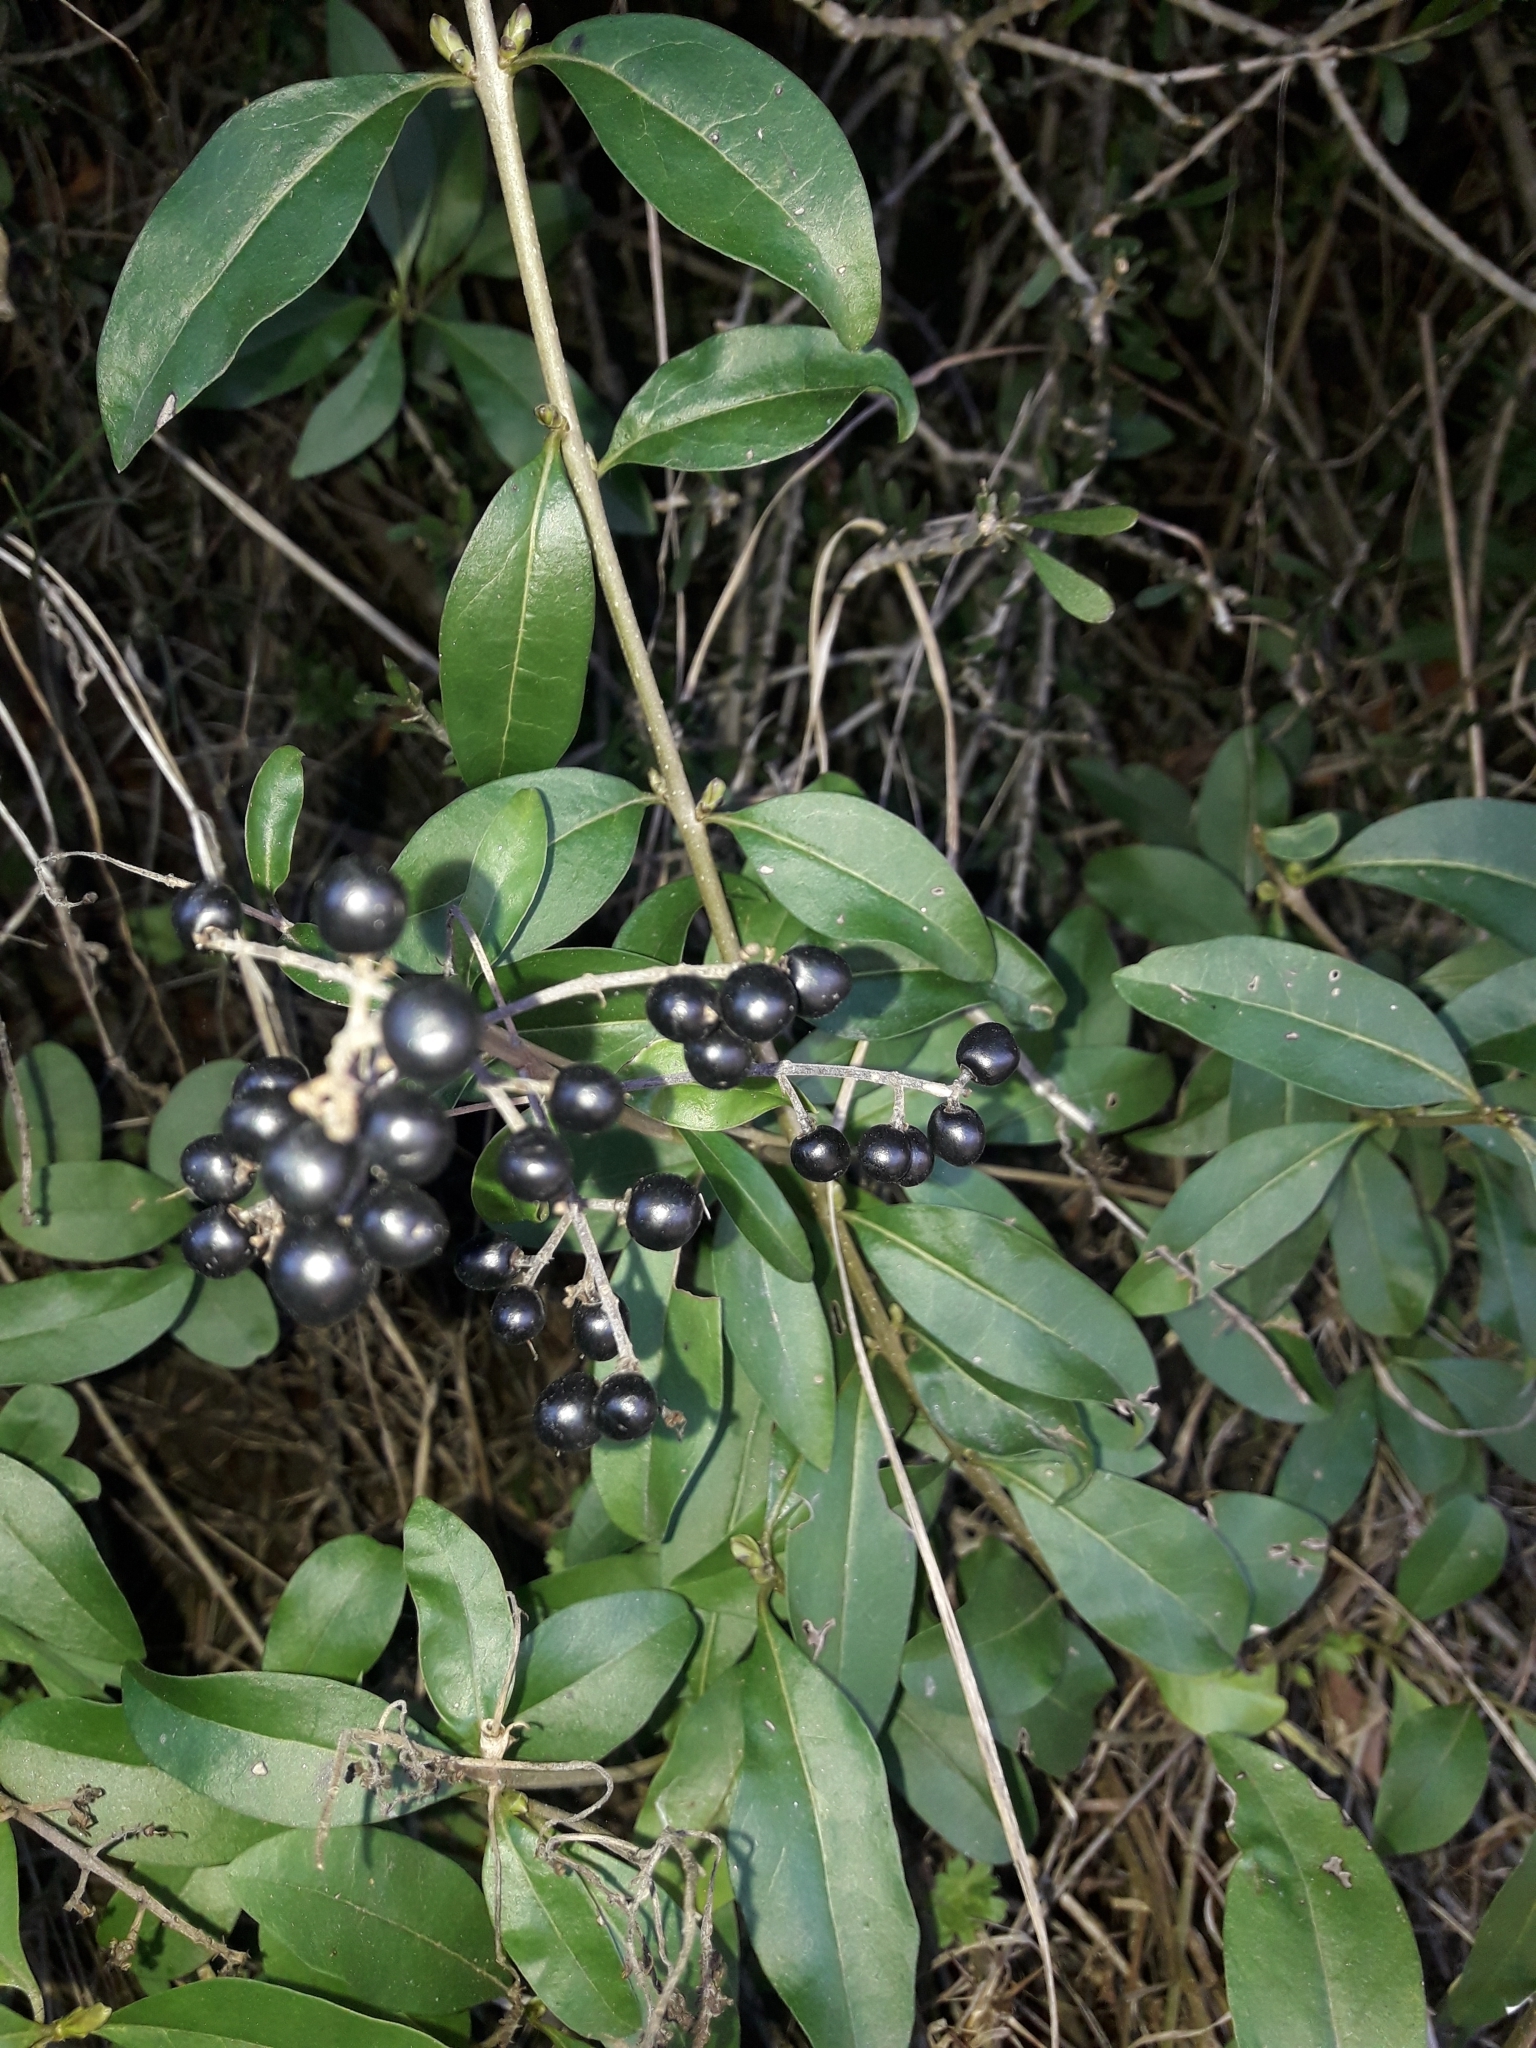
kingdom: Plantae
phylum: Tracheophyta
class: Magnoliopsida
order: Lamiales
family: Oleaceae
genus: Ligustrum
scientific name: Ligustrum vulgare
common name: Wild privet
